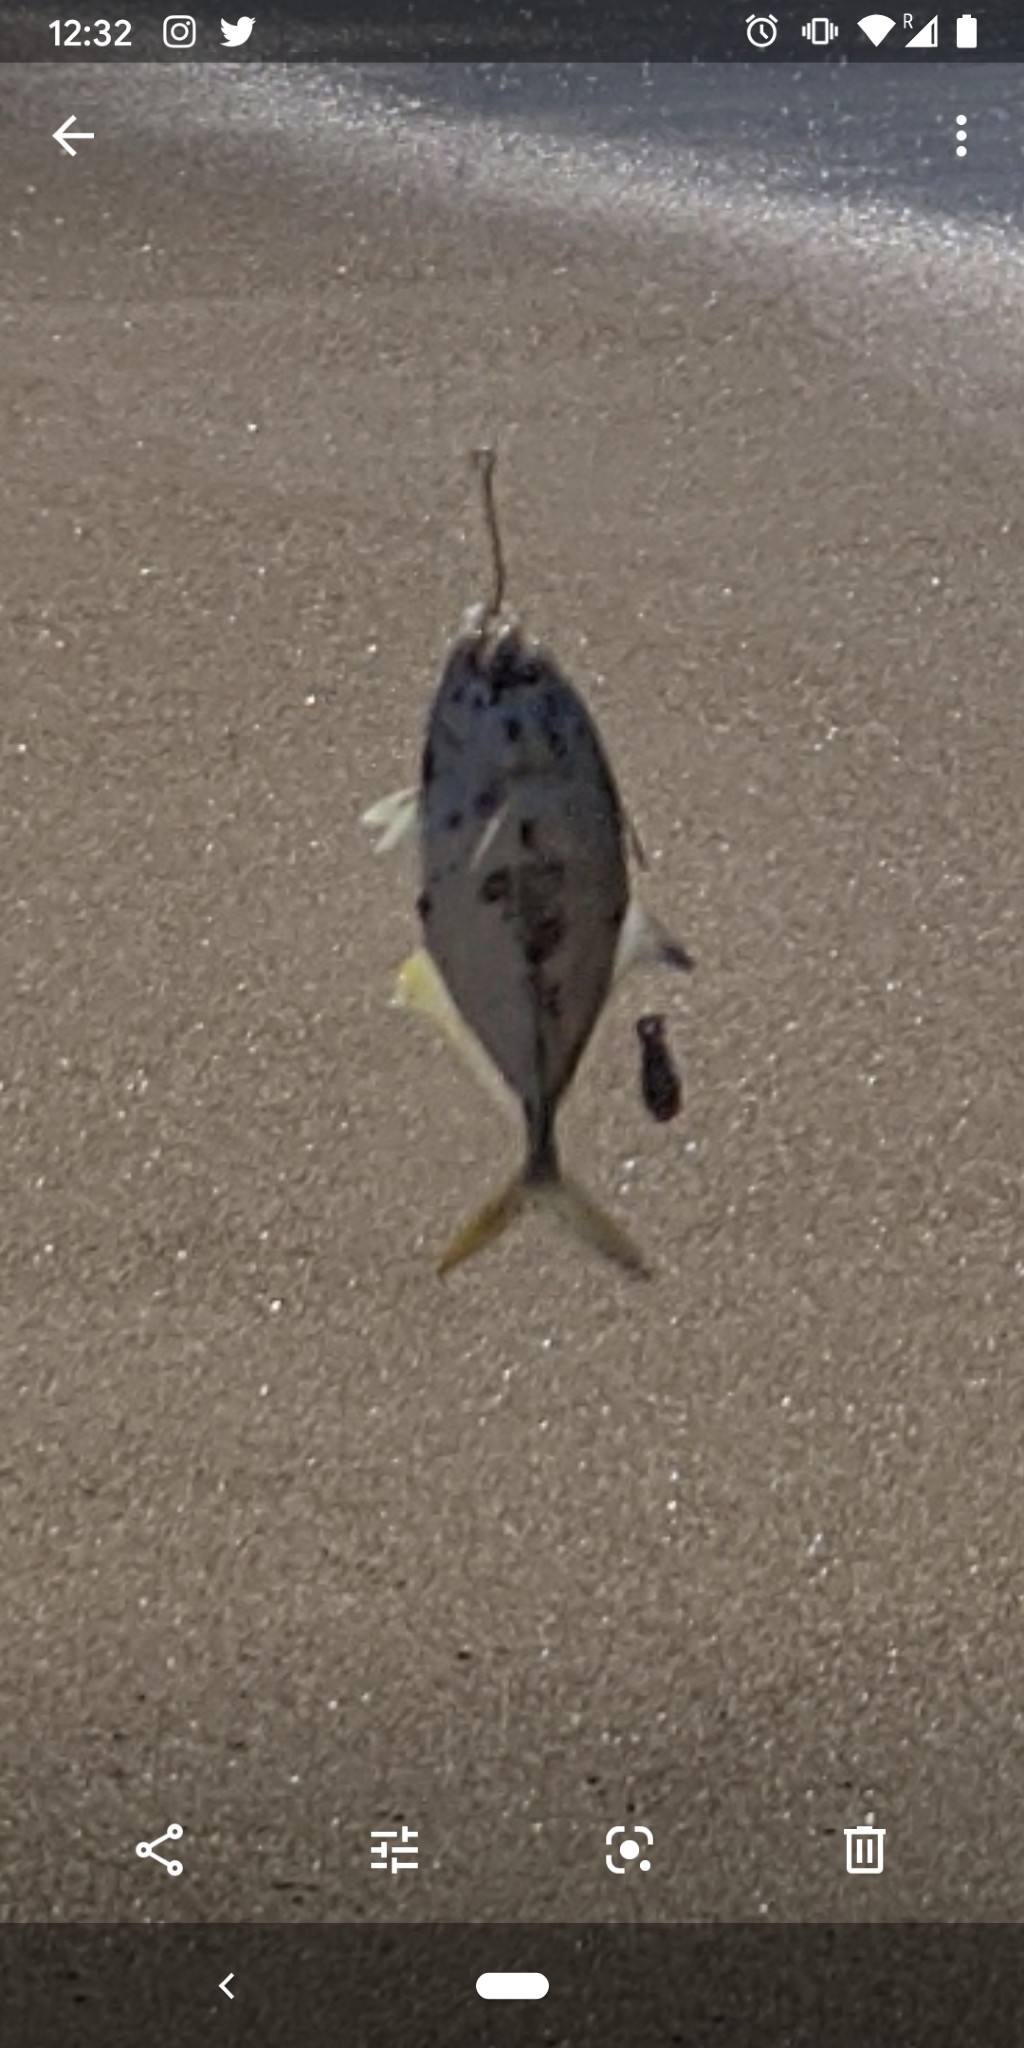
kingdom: Animalia
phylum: Chordata
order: Perciformes
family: Carangidae
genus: Caranx
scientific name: Caranx caninus
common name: Pacific crevalle jack
